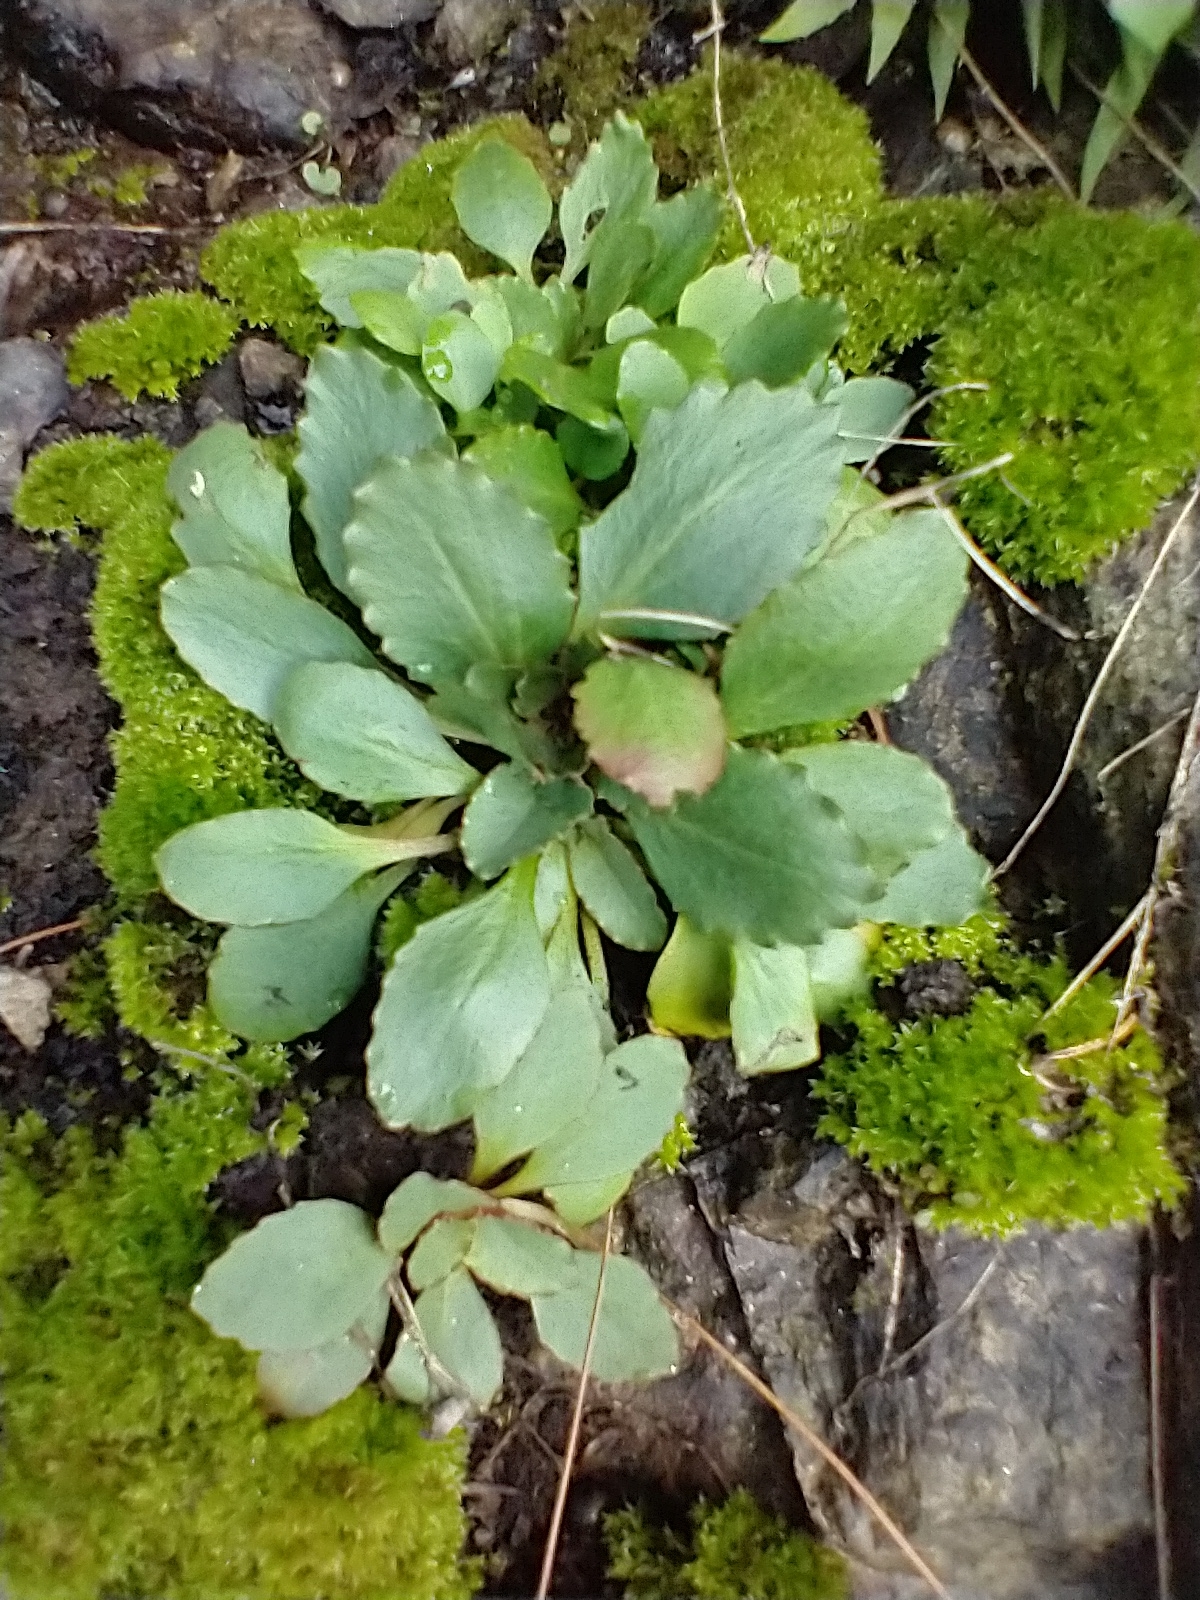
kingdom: Plantae
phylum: Tracheophyta
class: Magnoliopsida
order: Saxifragales
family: Saxifragaceae
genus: Micranthes
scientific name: Micranthes virginiensis
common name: Early saxifrage
